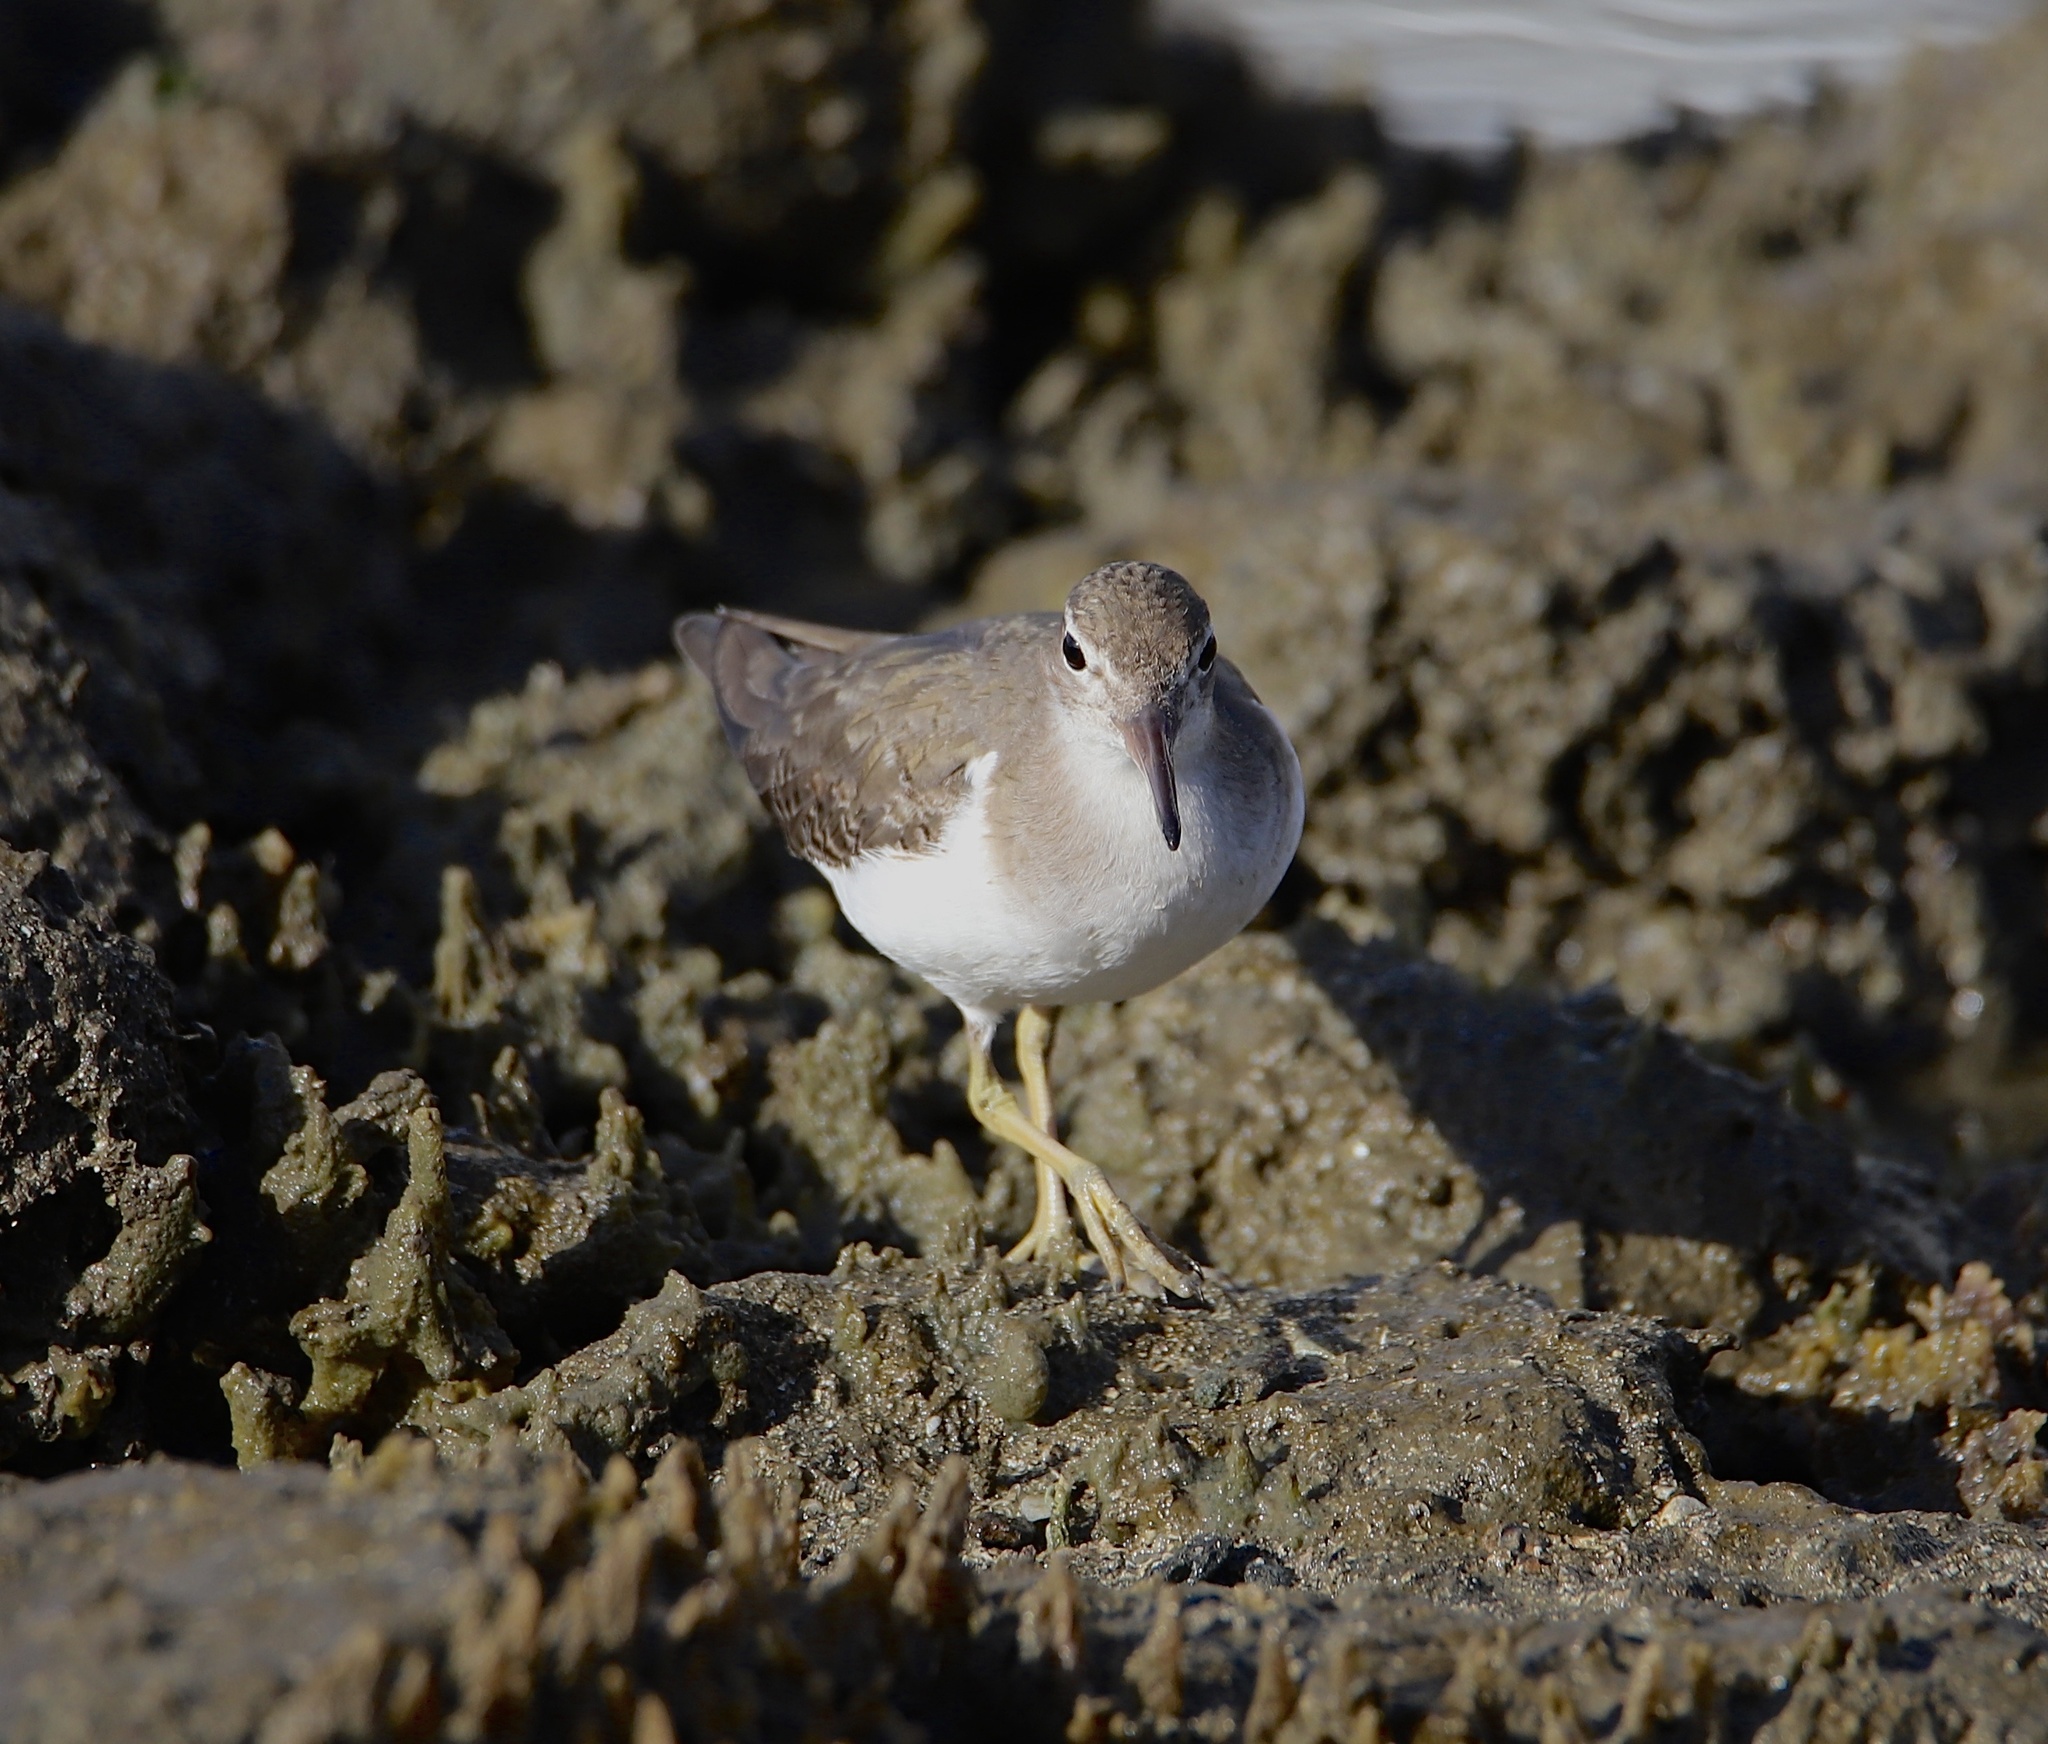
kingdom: Animalia
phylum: Chordata
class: Aves
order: Charadriiformes
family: Scolopacidae
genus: Actitis
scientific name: Actitis macularius
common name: Spotted sandpiper
